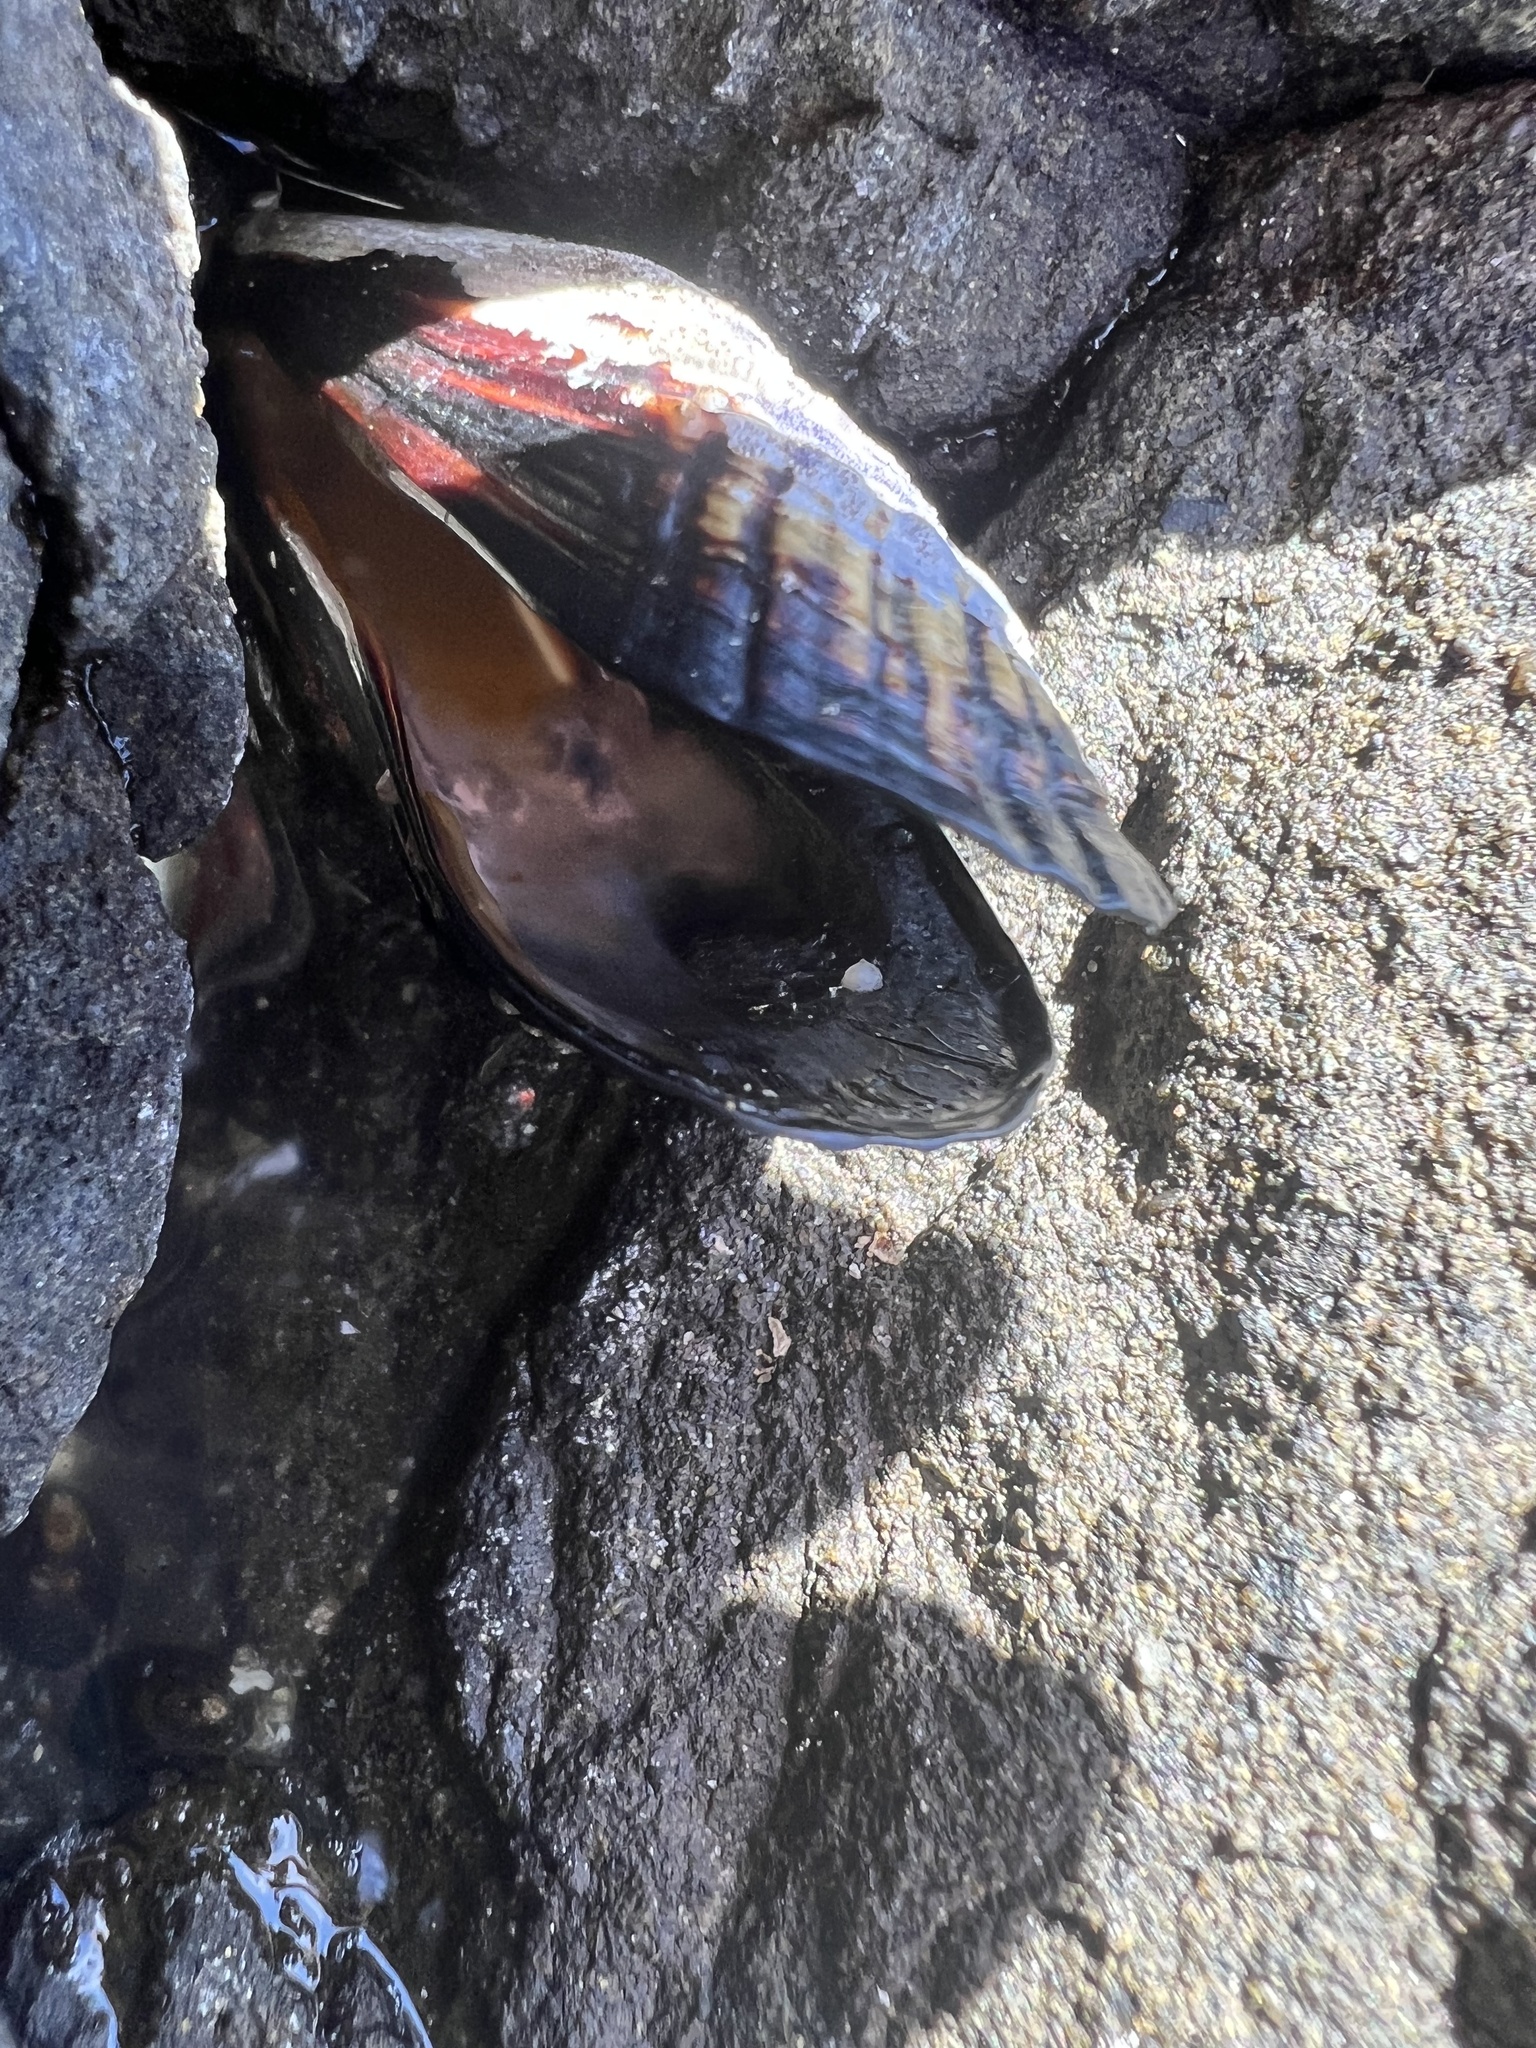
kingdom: Animalia
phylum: Mollusca
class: Bivalvia
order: Mytilida
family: Mytilidae
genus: Mytilus
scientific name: Mytilus californianus
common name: California mussel
